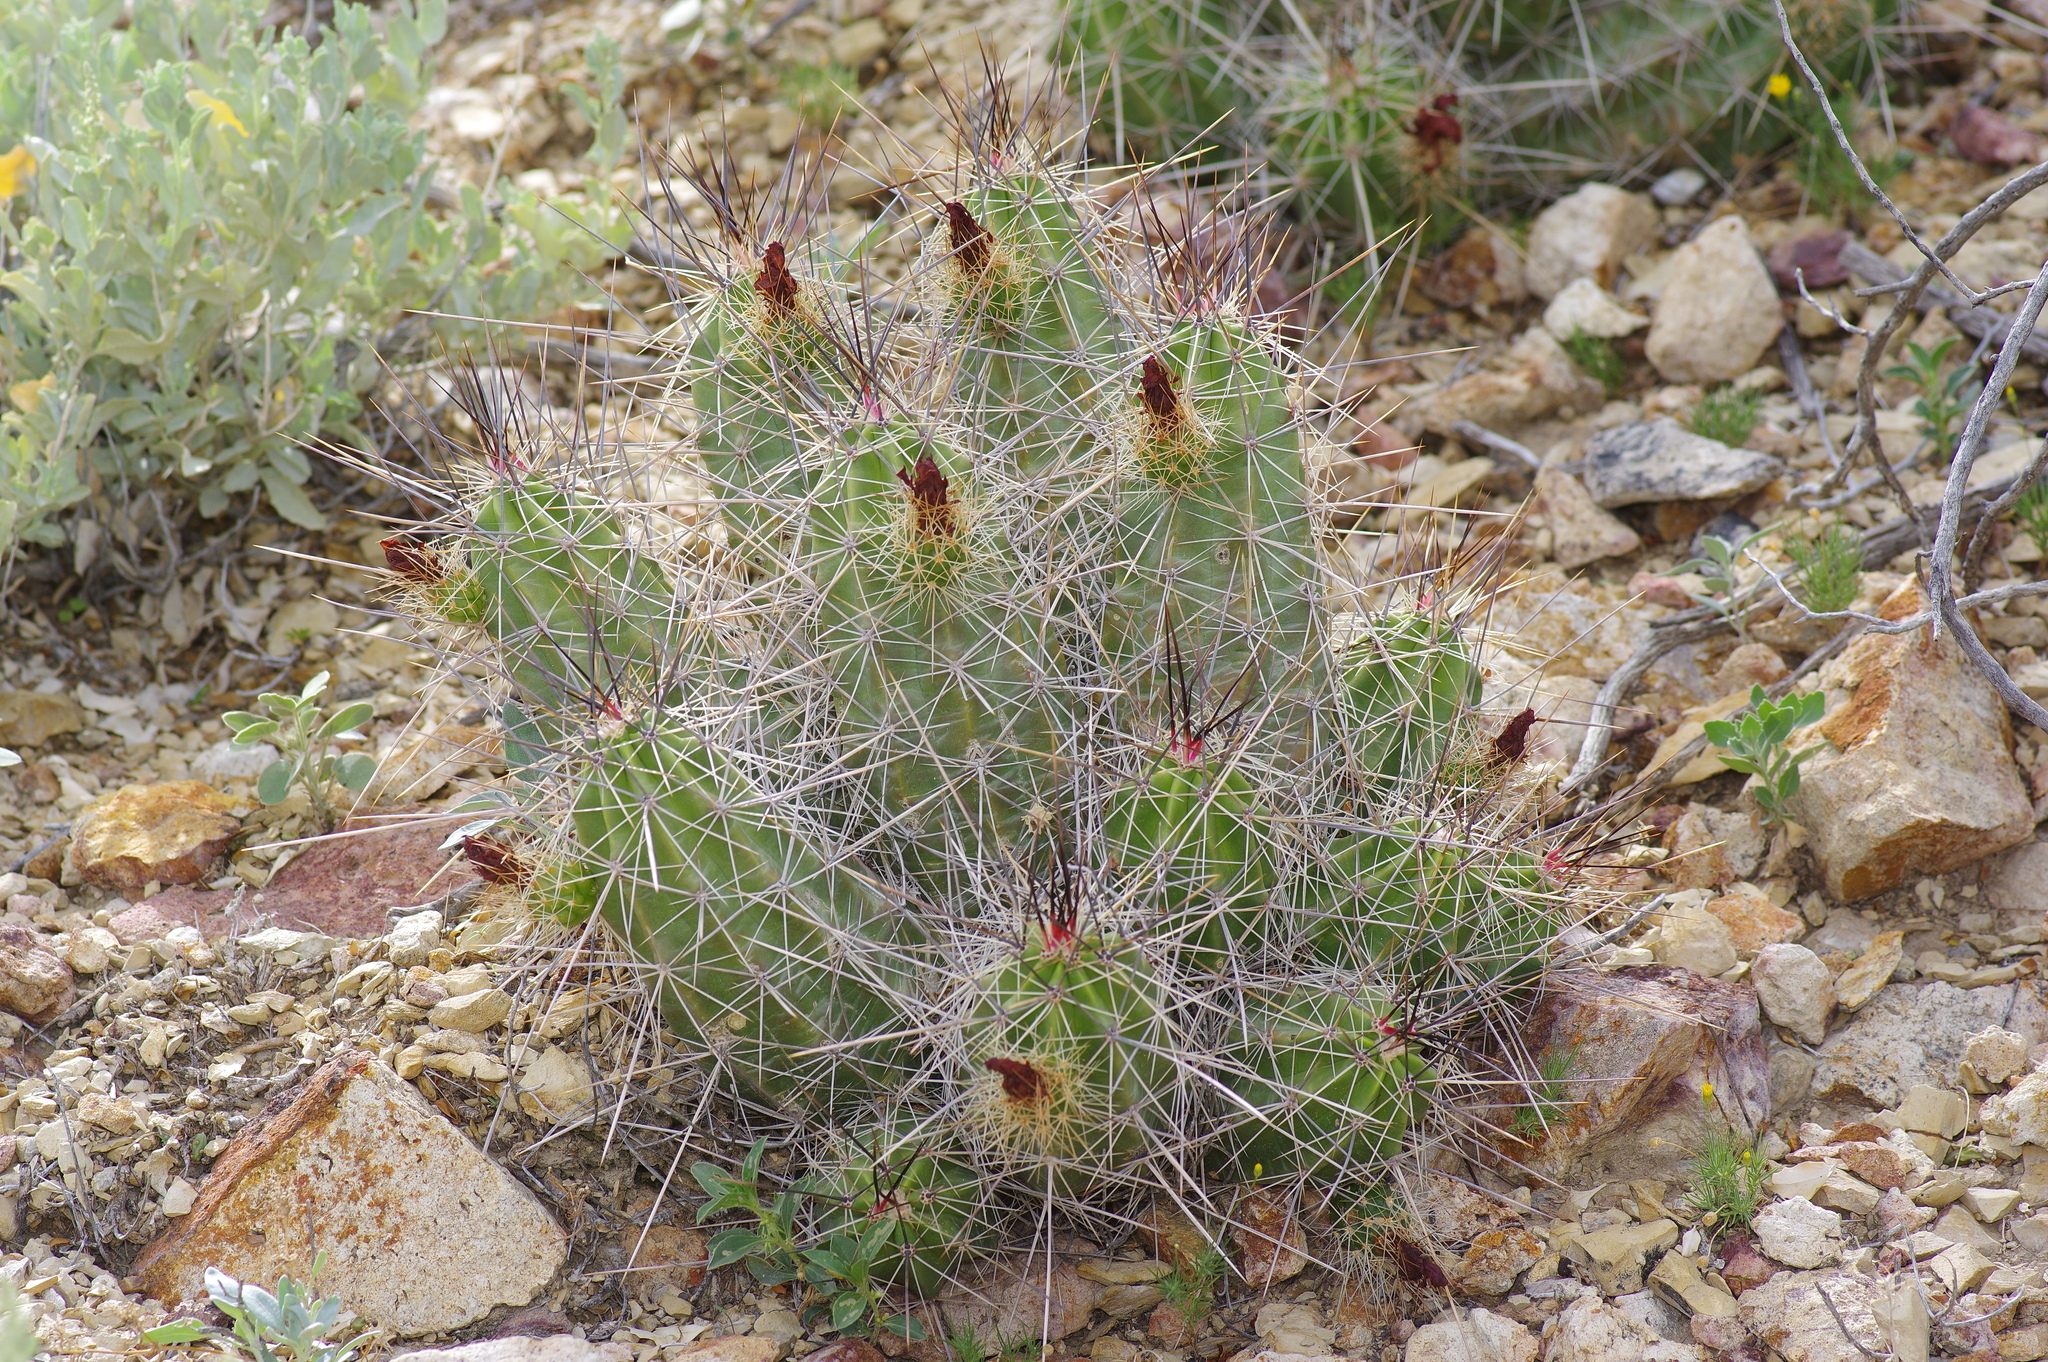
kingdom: Plantae
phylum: Tracheophyta
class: Magnoliopsida
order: Caryophyllales
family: Cactaceae
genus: Echinocereus
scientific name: Echinocereus enneacanthus
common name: Pitaya
